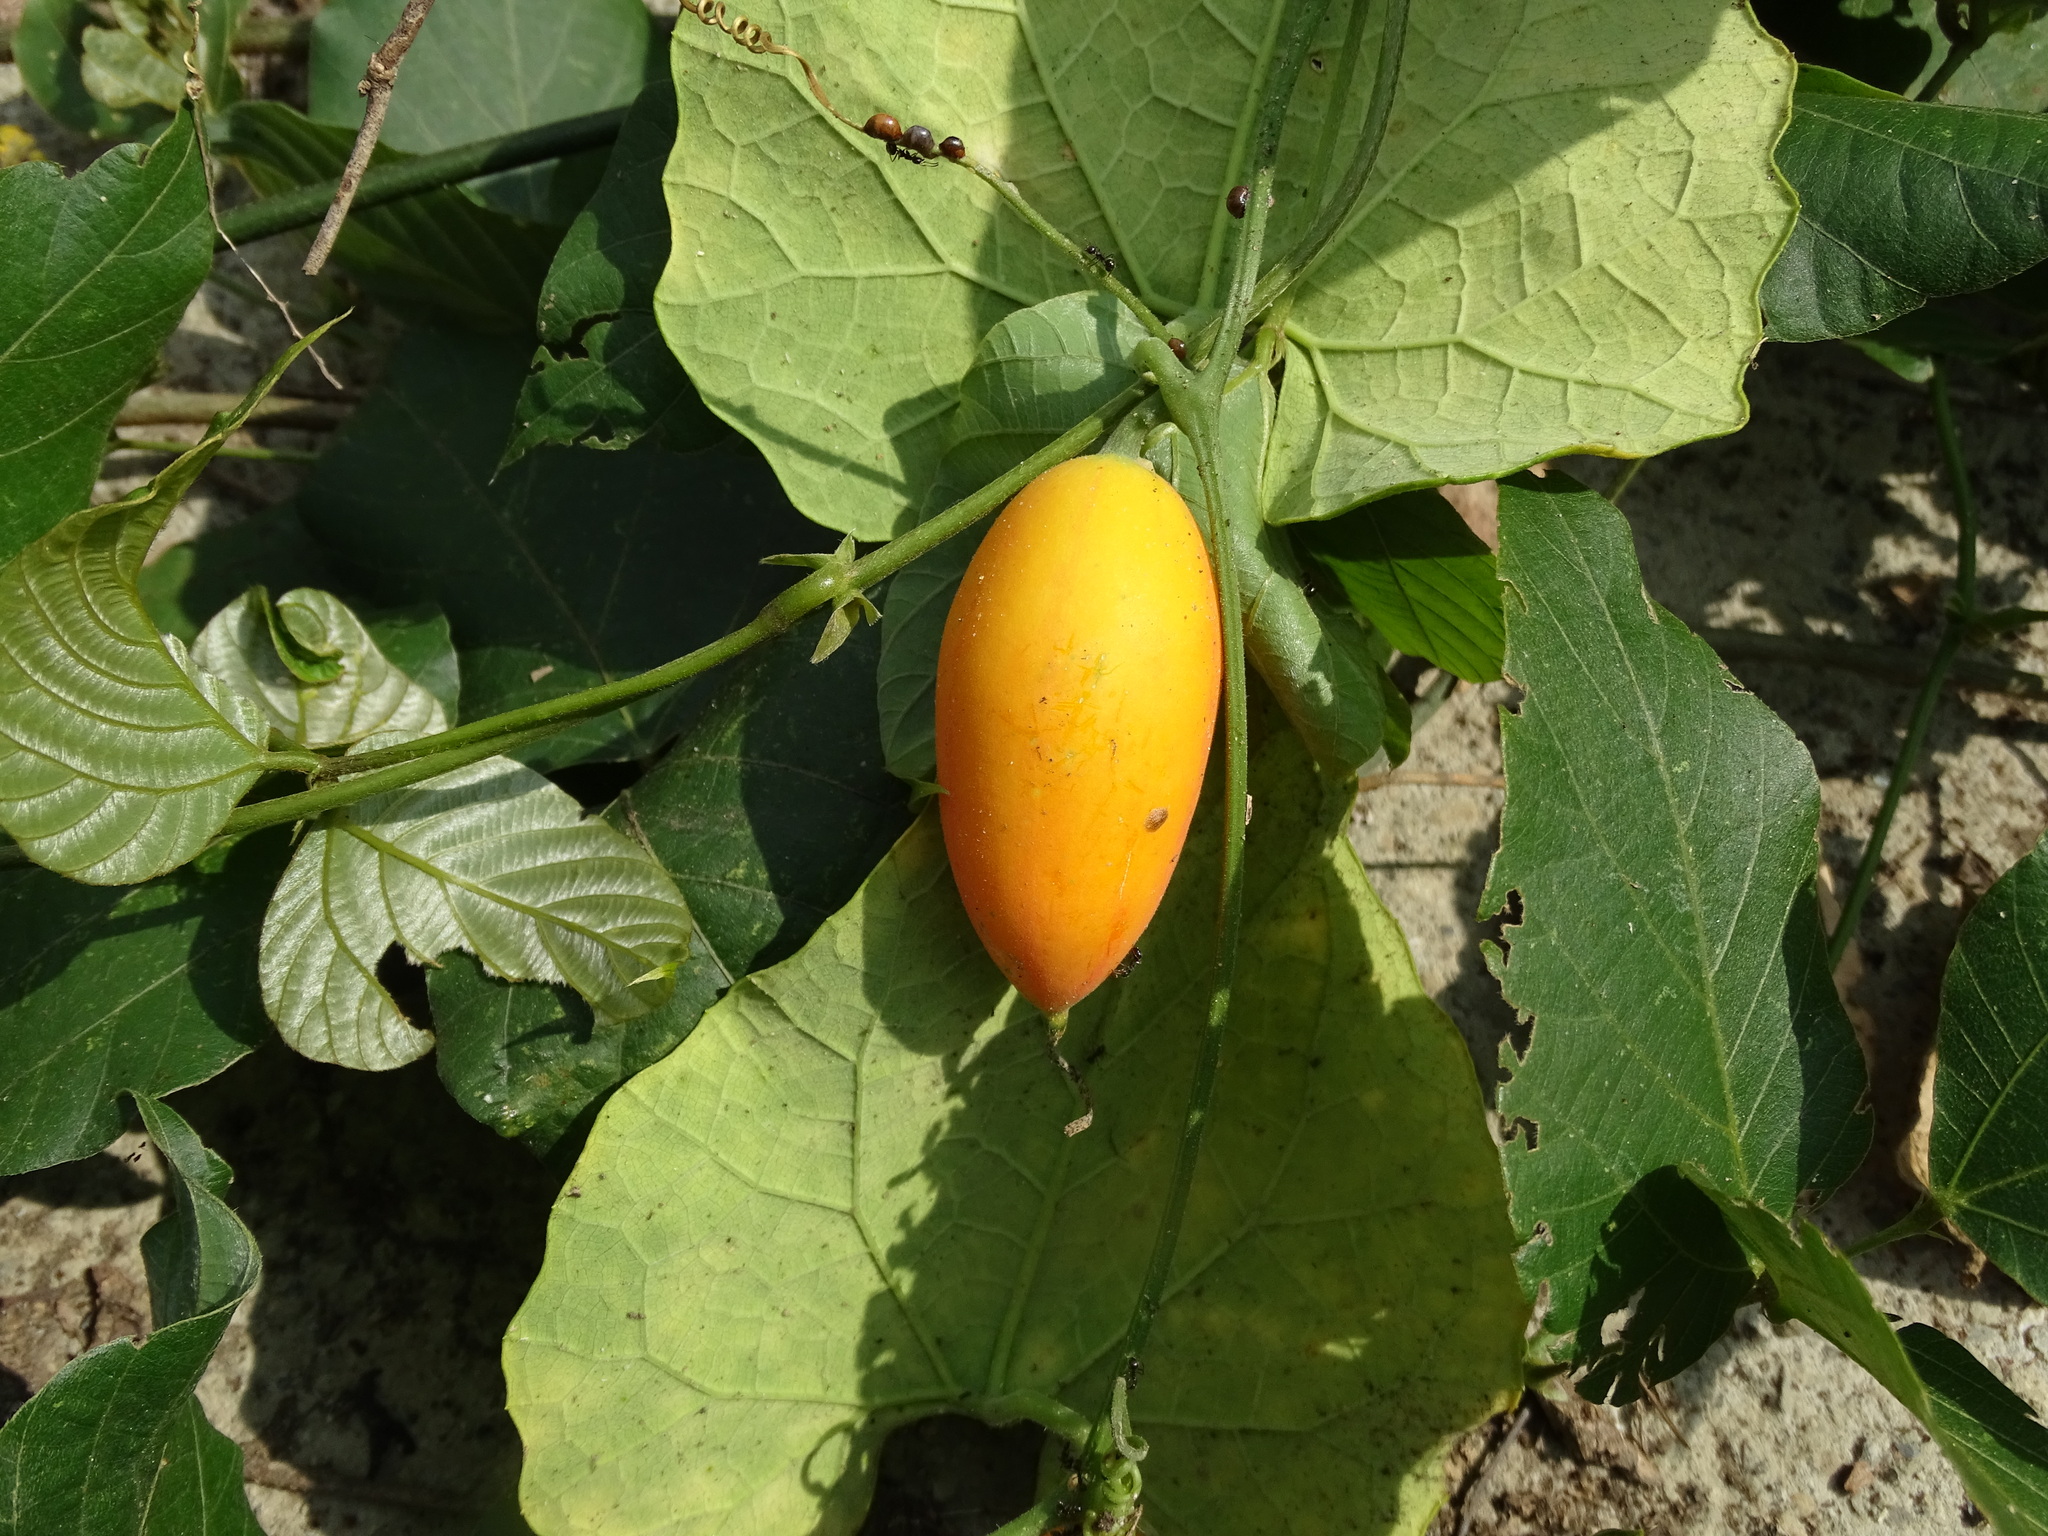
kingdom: Plantae
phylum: Tracheophyta
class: Magnoliopsida
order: Cucurbitales
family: Cucurbitaceae
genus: Trichosanthes
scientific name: Trichosanthes cucumeroides
